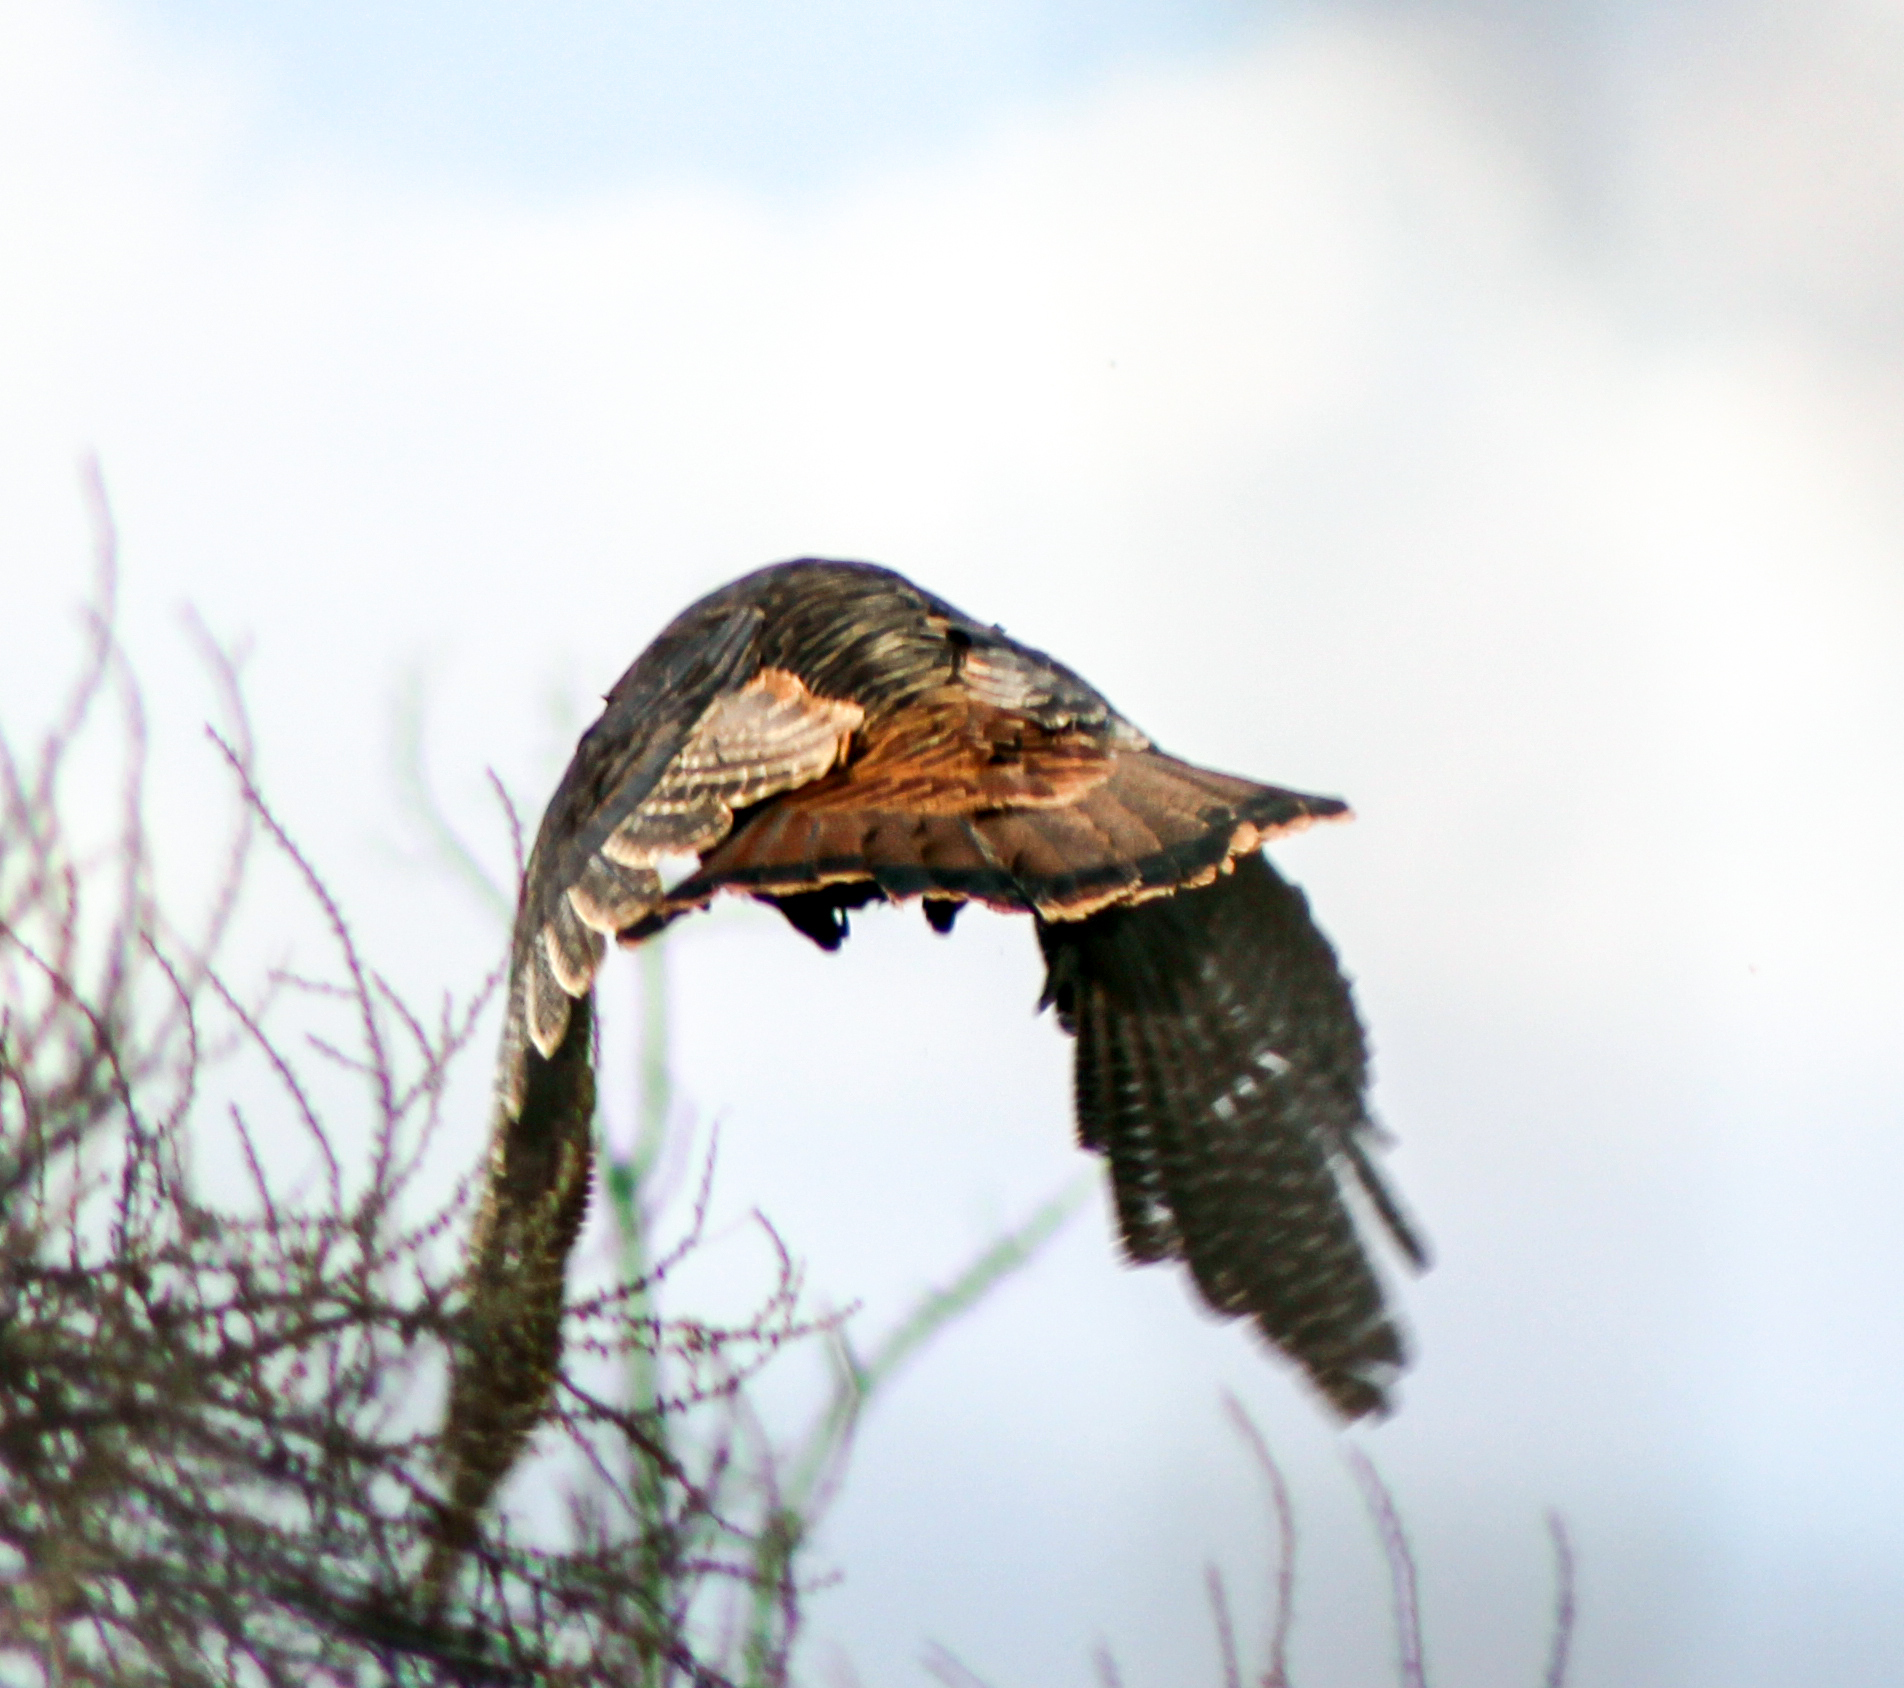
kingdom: Animalia
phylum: Chordata
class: Aves
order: Galliformes
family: Phasianidae
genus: Meleagris
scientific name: Meleagris gallopavo
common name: Wild turkey
